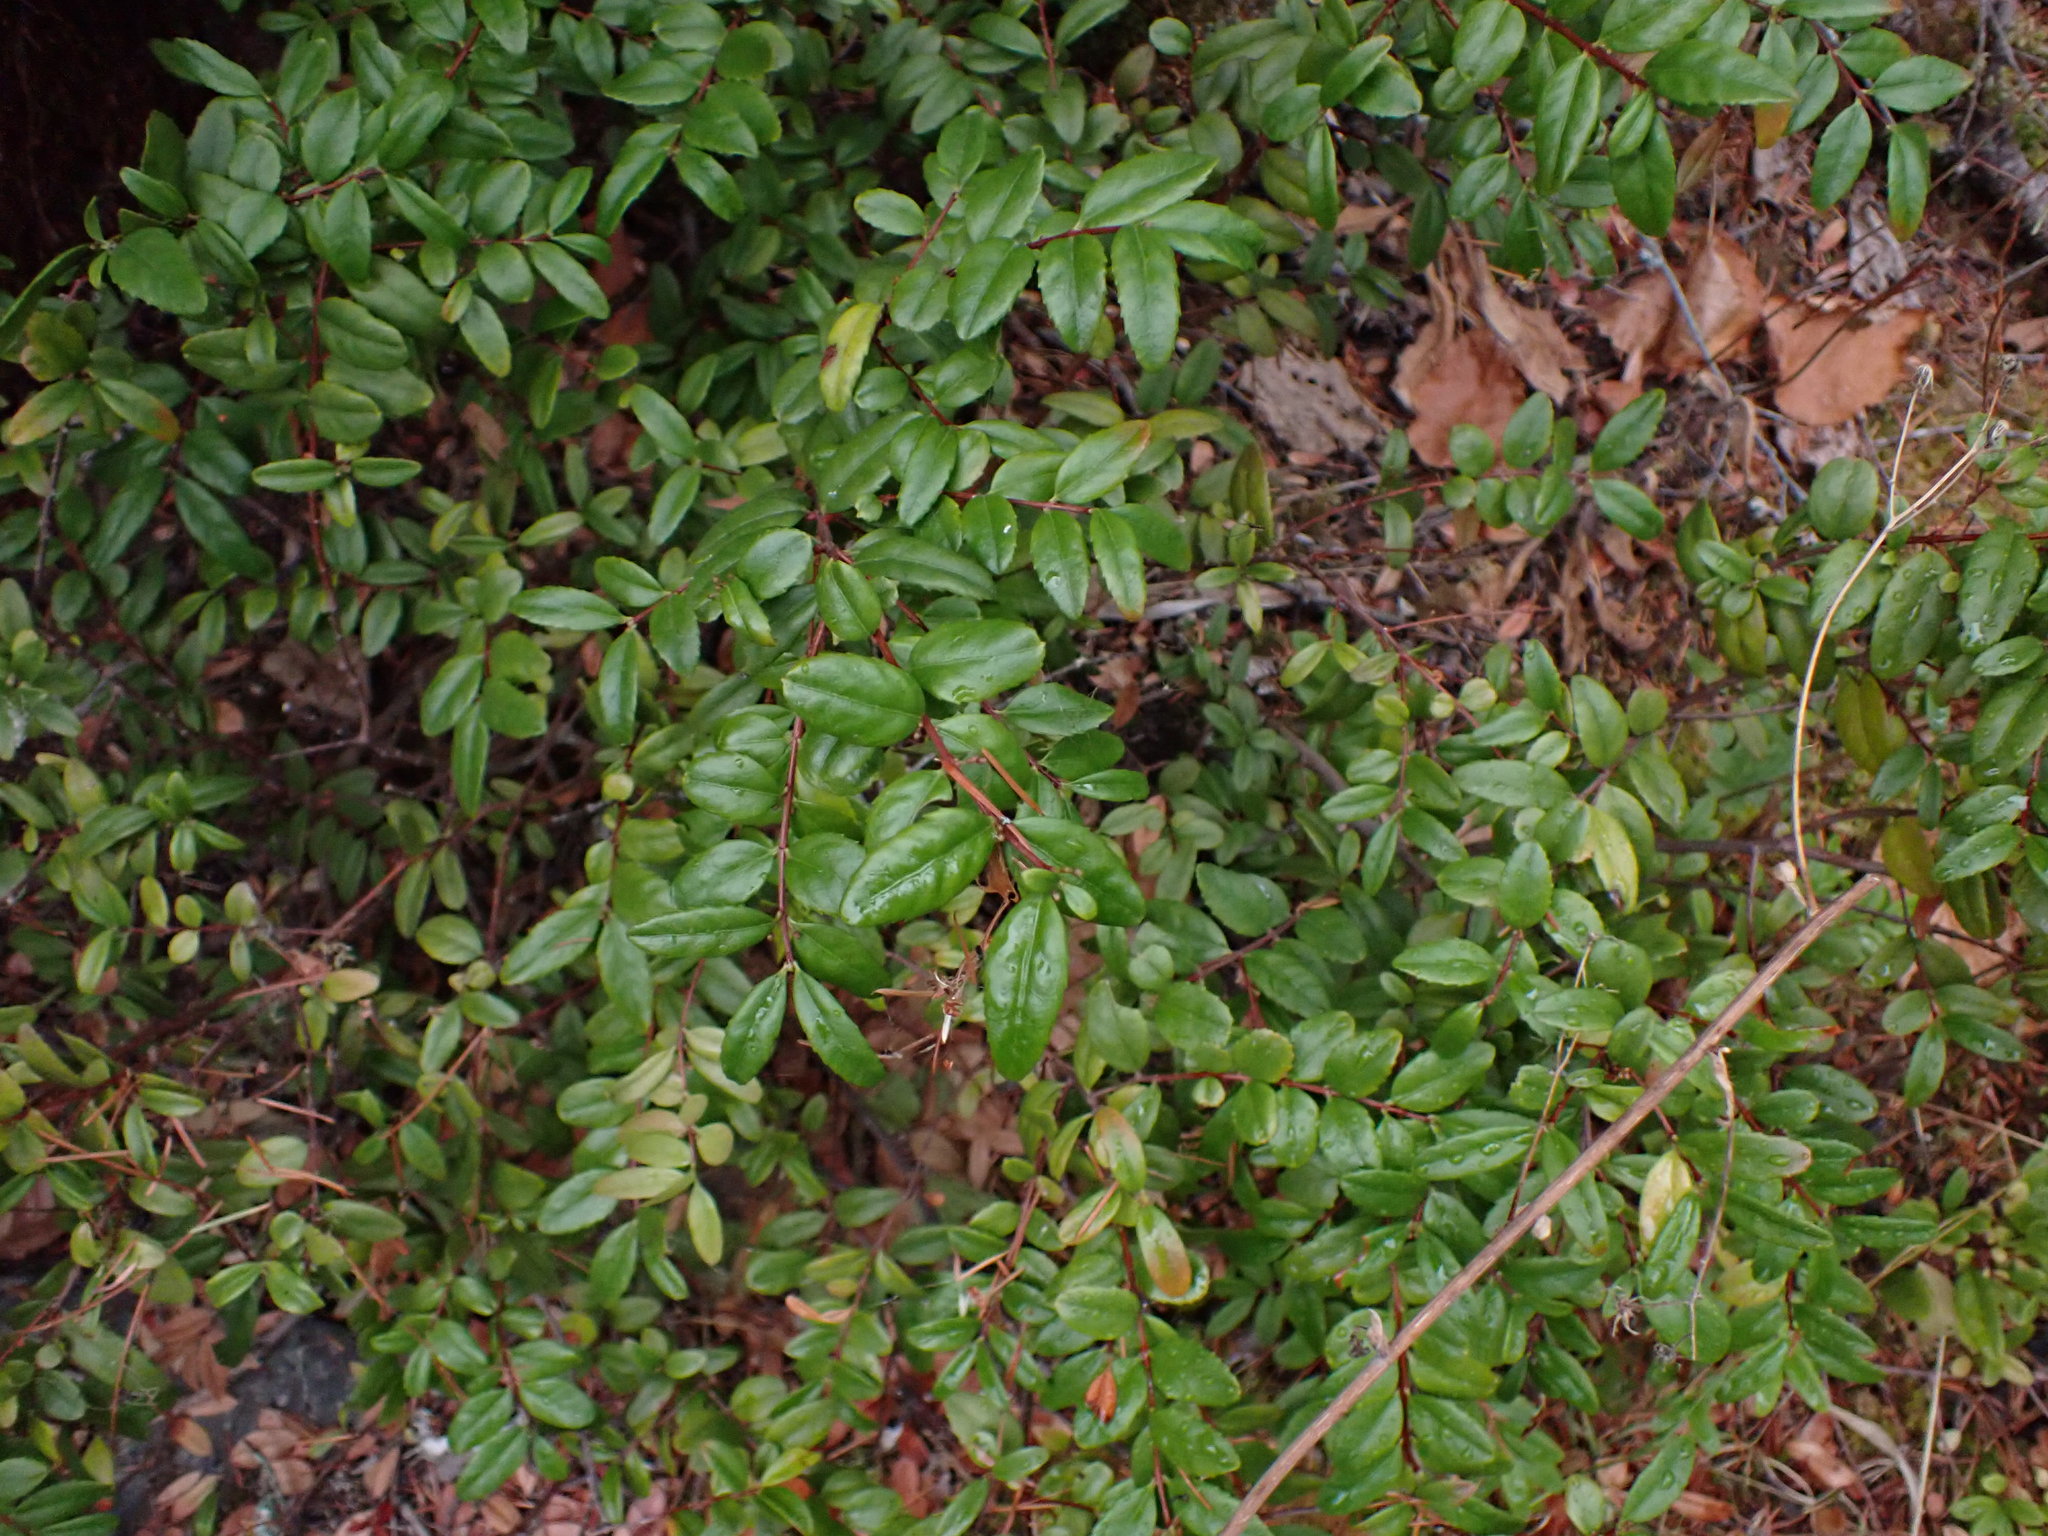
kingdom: Plantae
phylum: Tracheophyta
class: Magnoliopsida
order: Celastrales
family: Celastraceae
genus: Paxistima
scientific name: Paxistima myrsinites
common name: Mountain-lover
